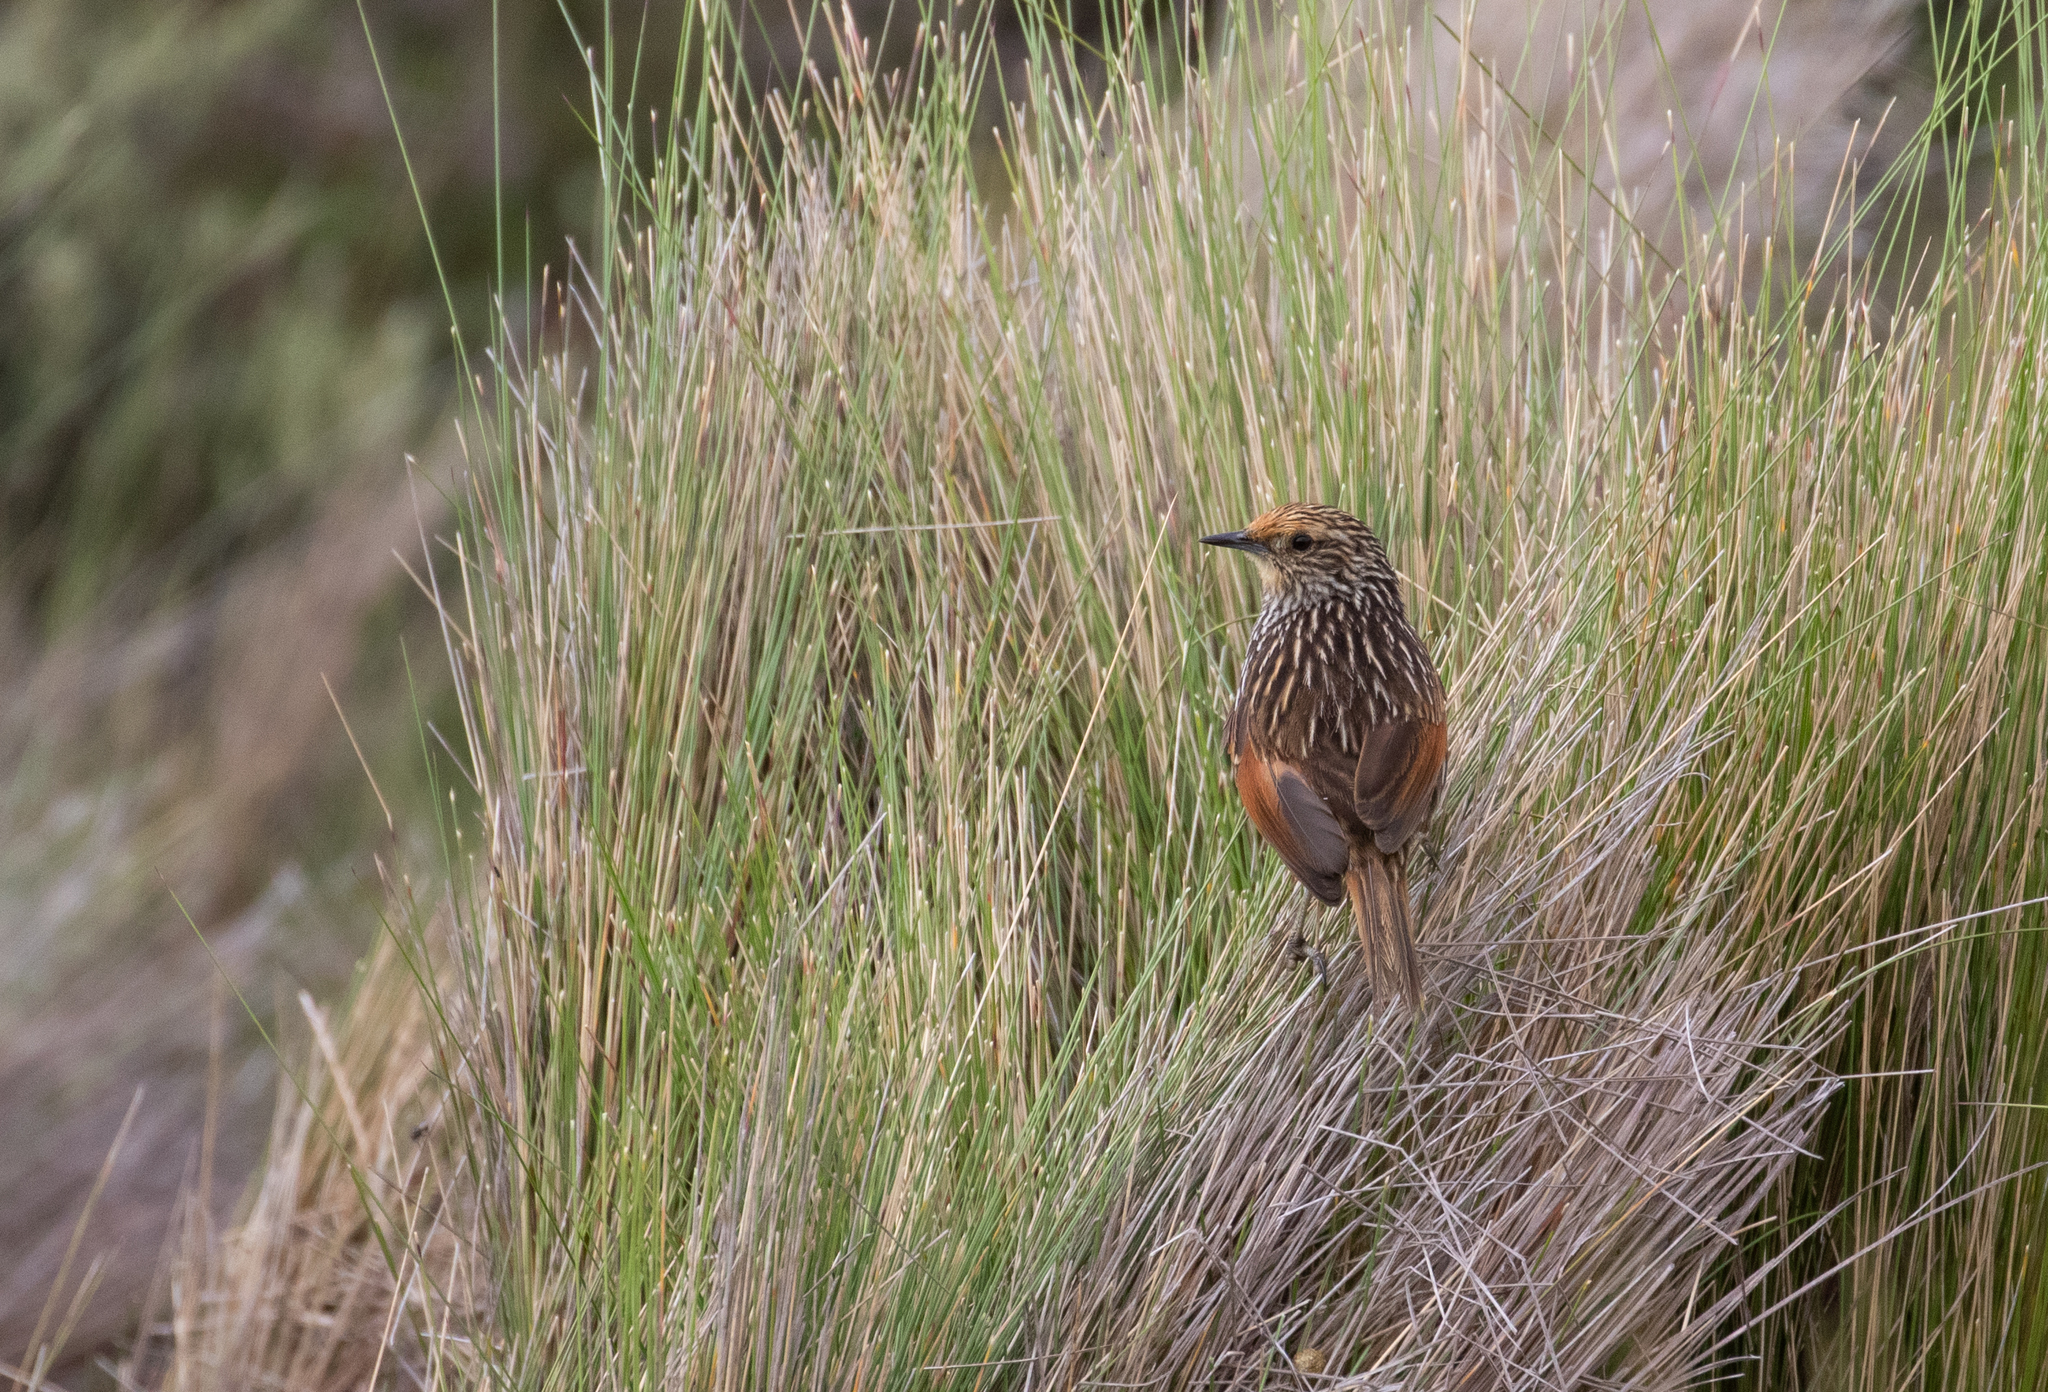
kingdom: Animalia
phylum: Chordata
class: Aves
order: Passeriformes
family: Furnariidae
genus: Asthenes
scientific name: Asthenes flammulata
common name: Many-striped canastero
